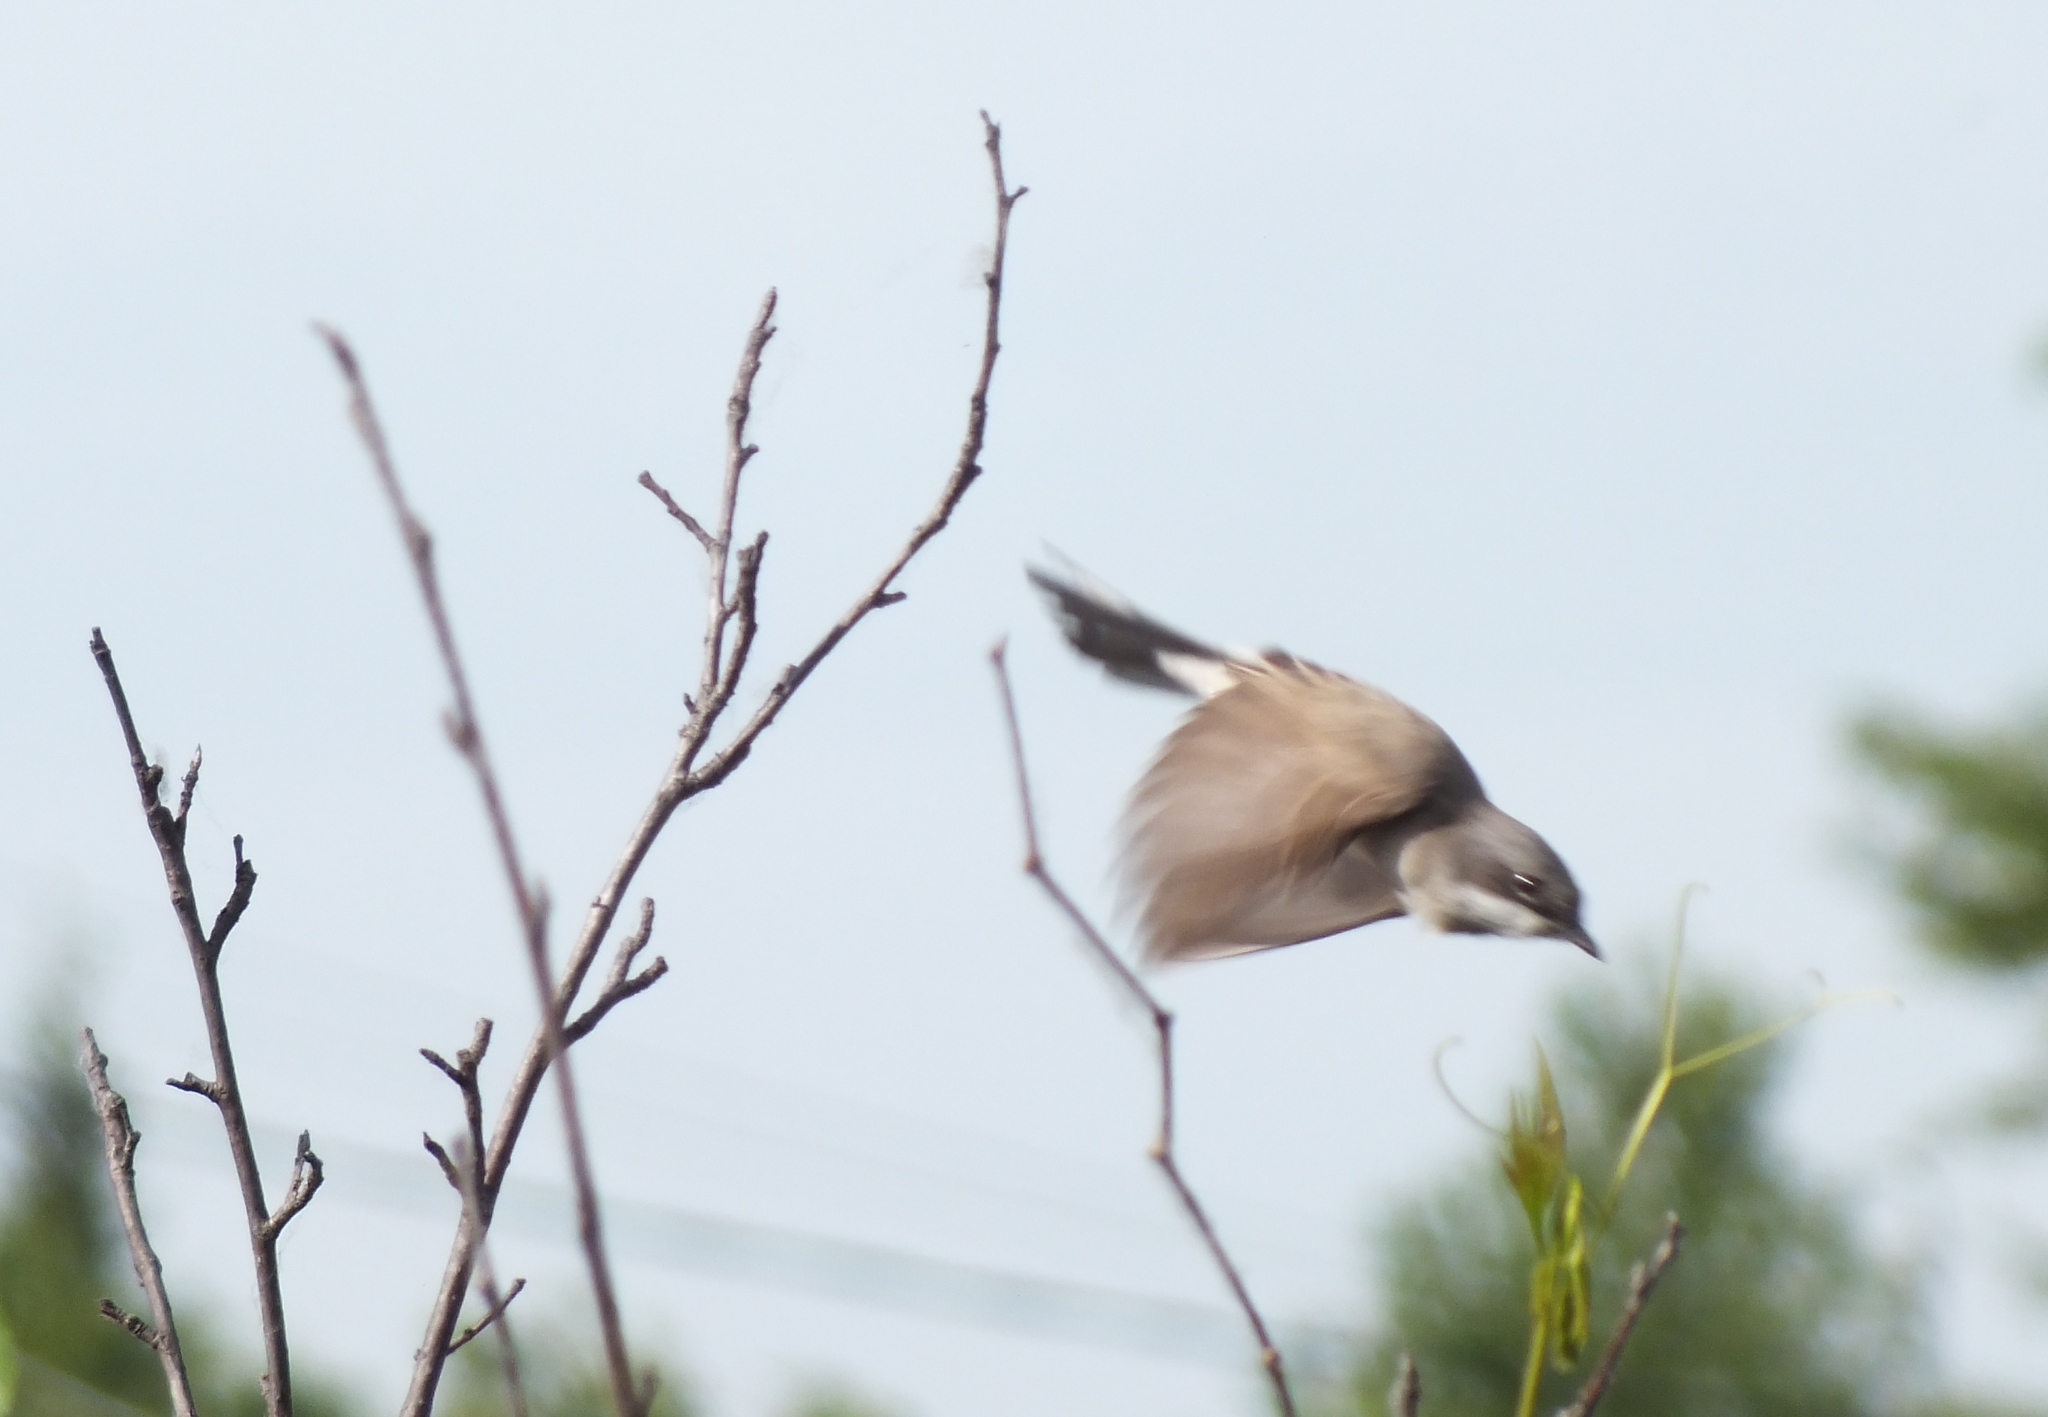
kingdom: Animalia
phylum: Chordata
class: Aves
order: Passeriformes
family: Sylviidae
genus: Sylvia
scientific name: Sylvia curruca
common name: Lesser whitethroat
